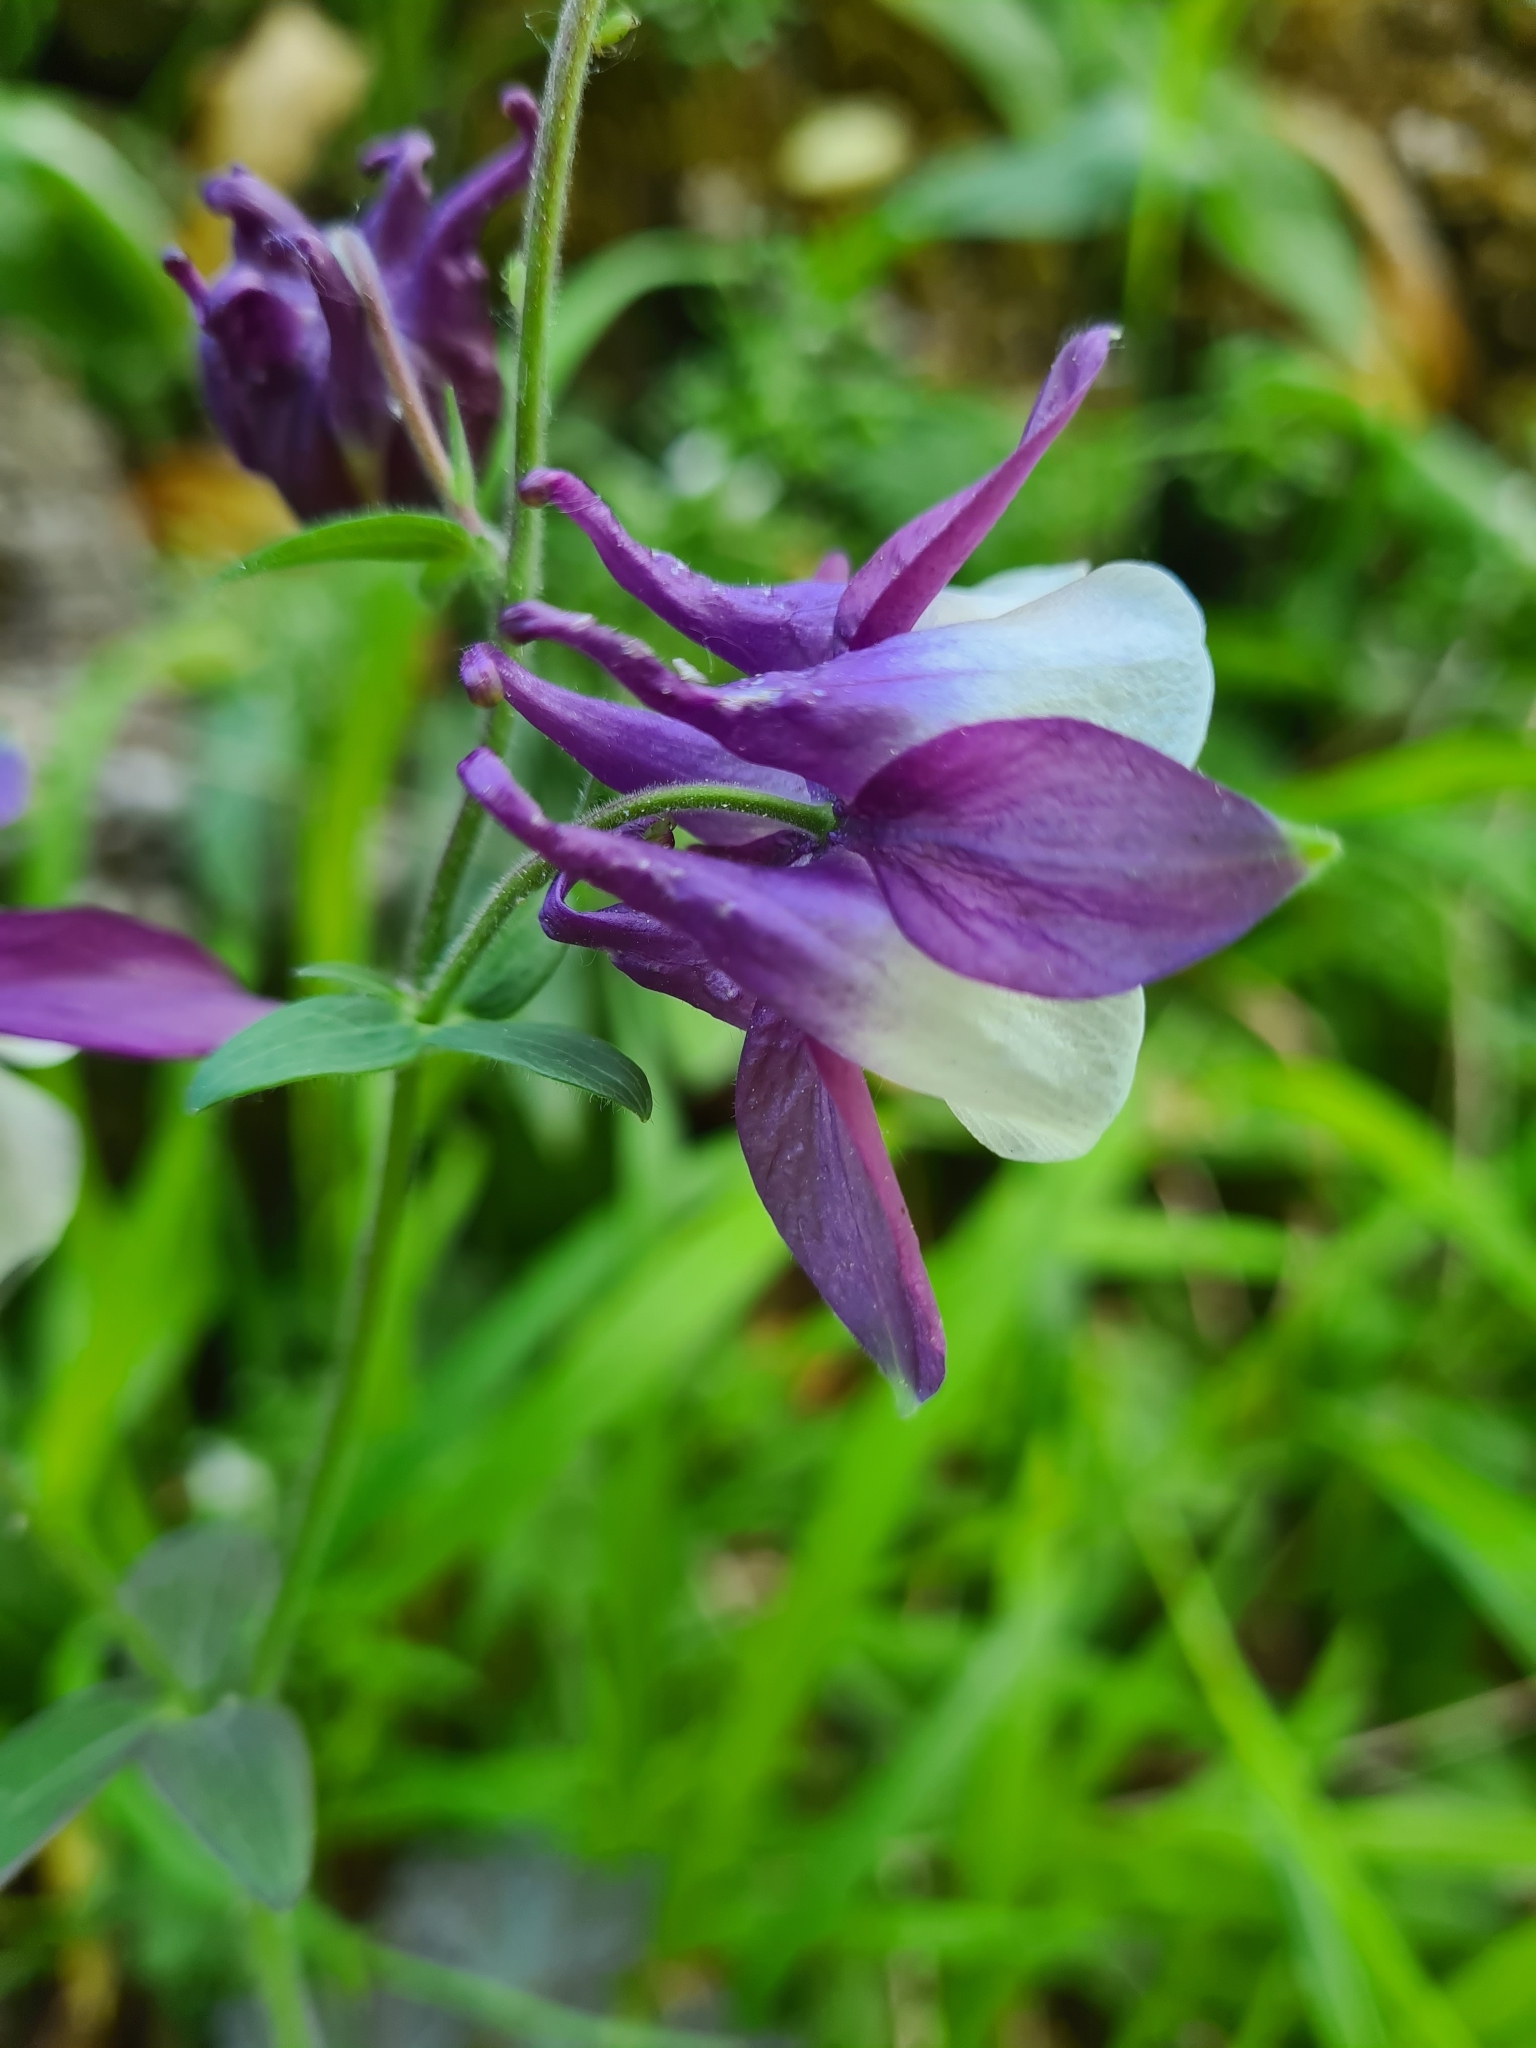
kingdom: Plantae
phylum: Tracheophyta
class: Magnoliopsida
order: Ranunculales
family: Ranunculaceae
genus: Aquilegia
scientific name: Aquilegia vulgaris
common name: Columbine
